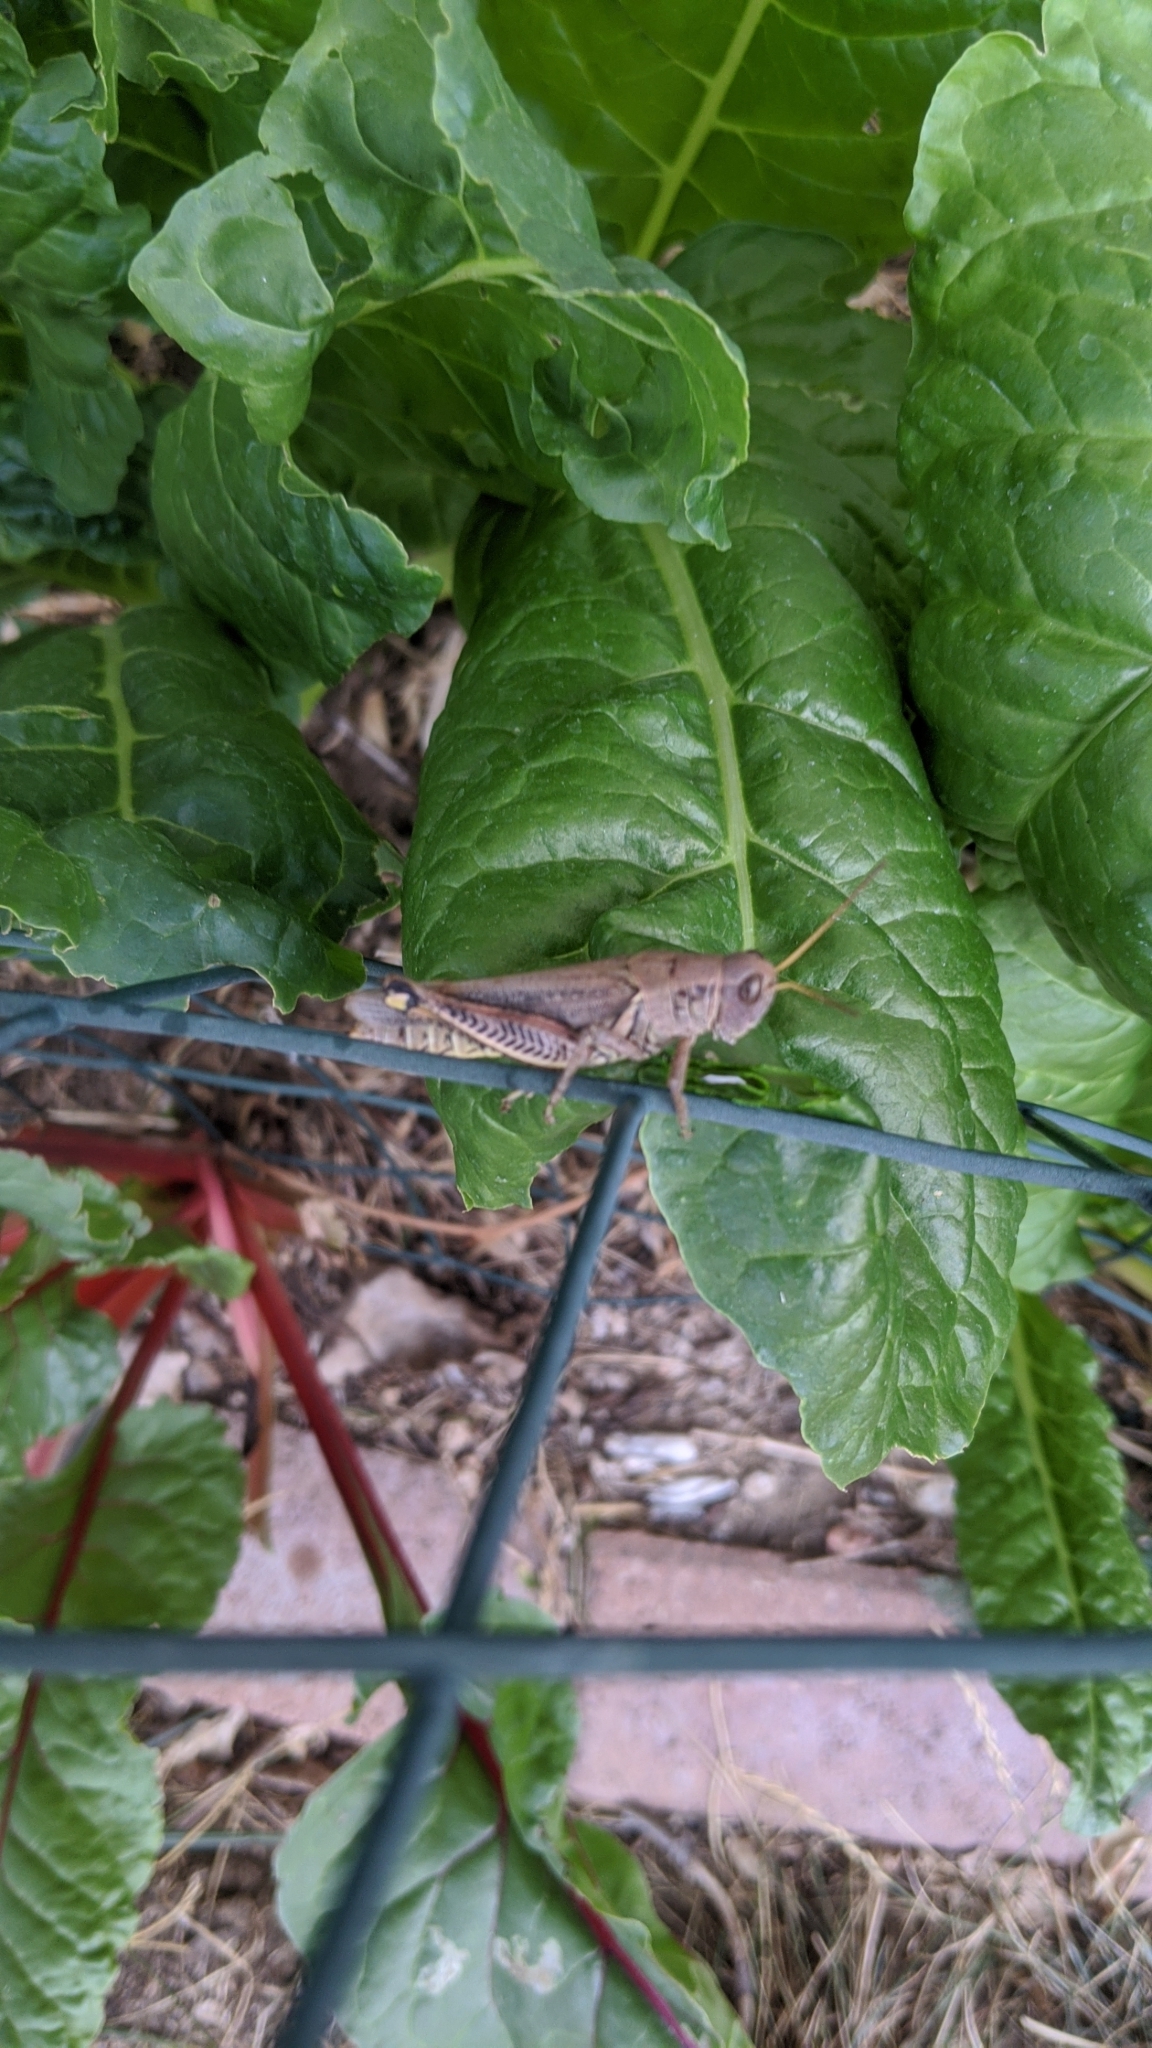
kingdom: Animalia
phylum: Arthropoda
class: Insecta
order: Orthoptera
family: Acrididae
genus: Melanoplus
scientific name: Melanoplus differentialis
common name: Differential grasshopper
